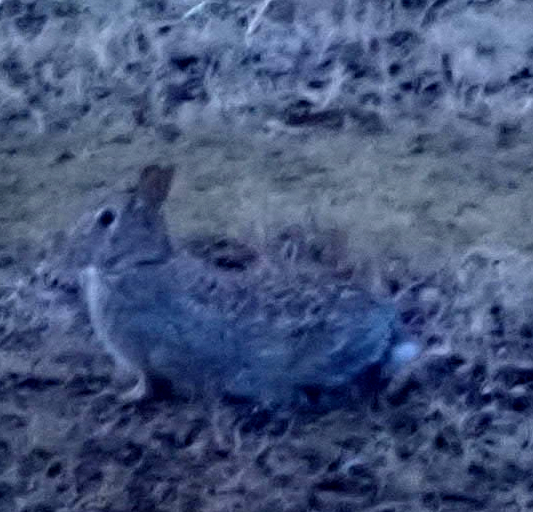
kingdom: Animalia
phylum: Chordata
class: Mammalia
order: Lagomorpha
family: Leporidae
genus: Sylvilagus
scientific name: Sylvilagus floridanus
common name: Eastern cottontail
